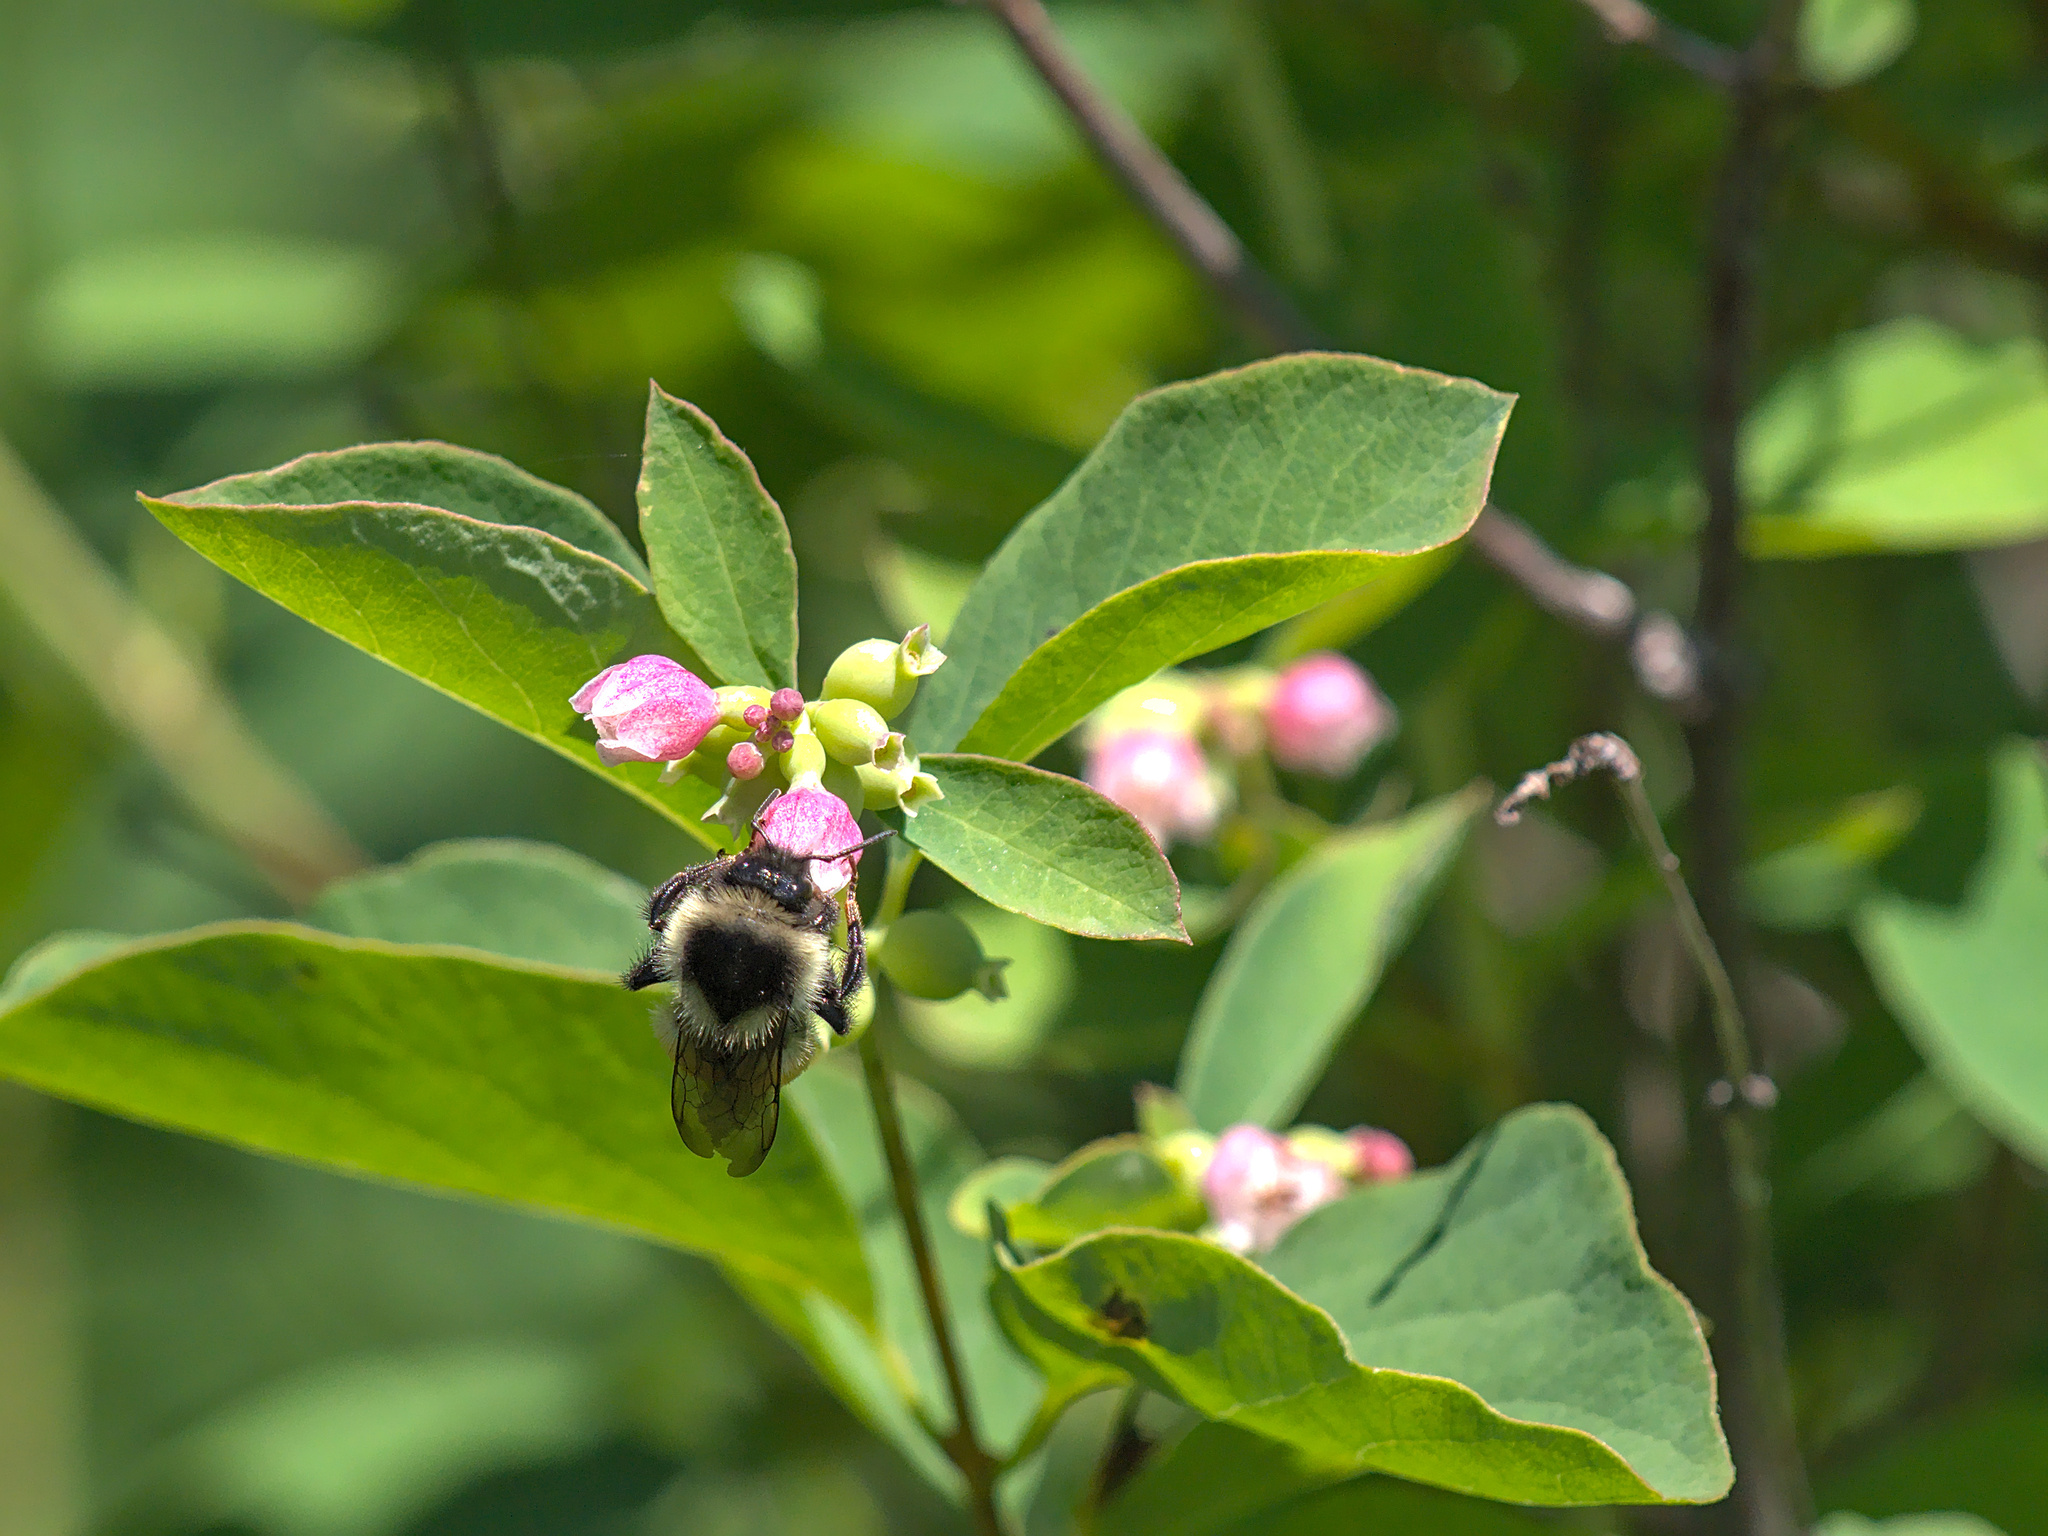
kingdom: Animalia
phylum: Arthropoda
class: Insecta
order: Hymenoptera
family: Apidae
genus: Pyrobombus
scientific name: Pyrobombus
